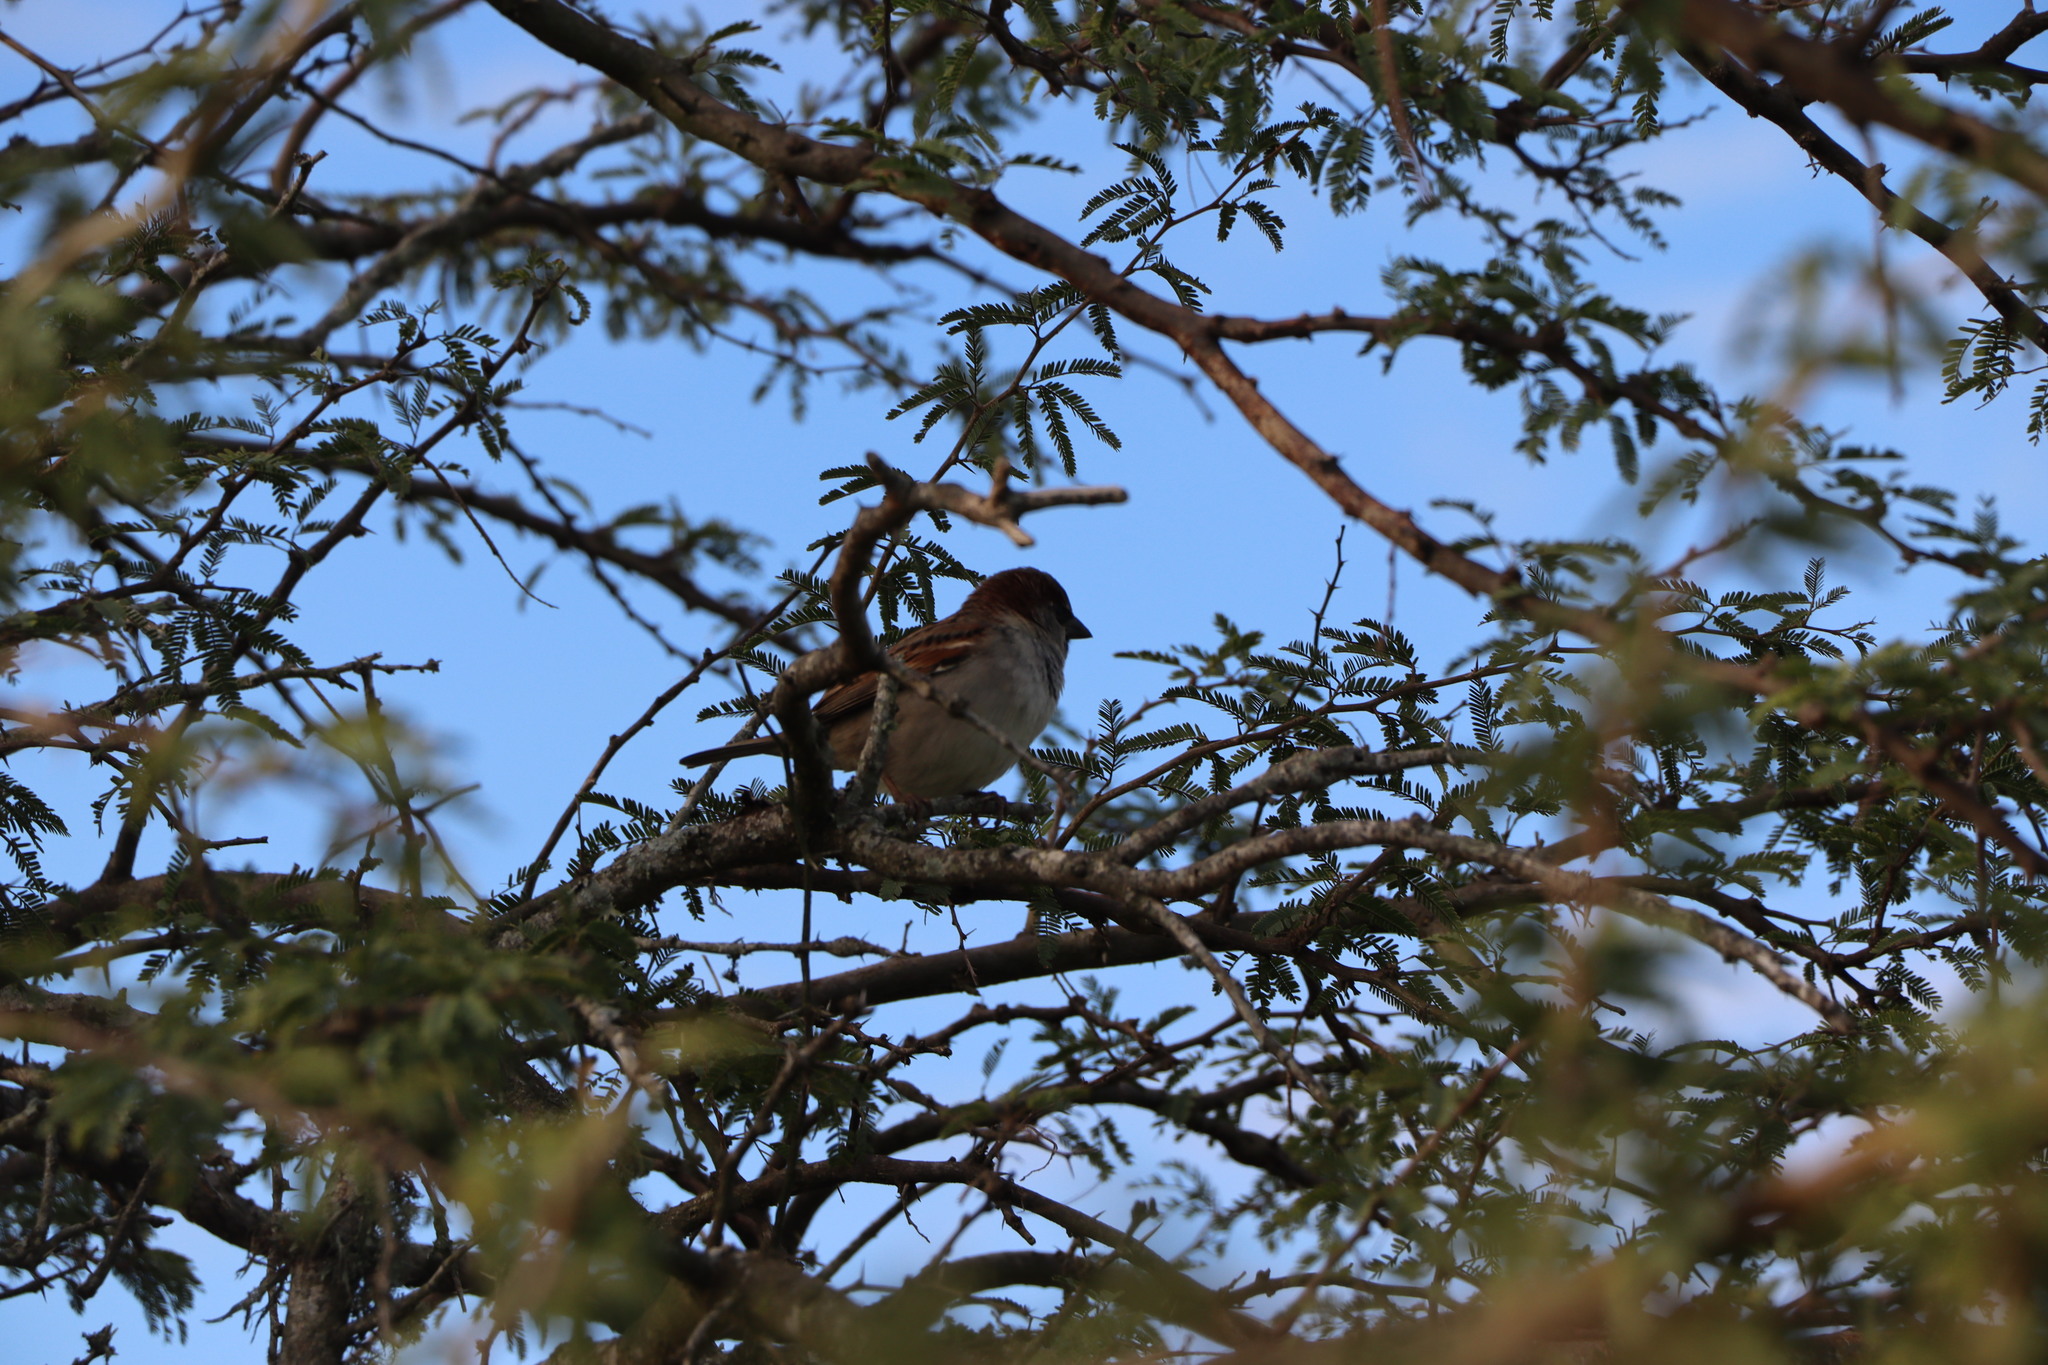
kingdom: Animalia
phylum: Chordata
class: Aves
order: Passeriformes
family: Passeridae
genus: Passer
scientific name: Passer domesticus
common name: House sparrow
